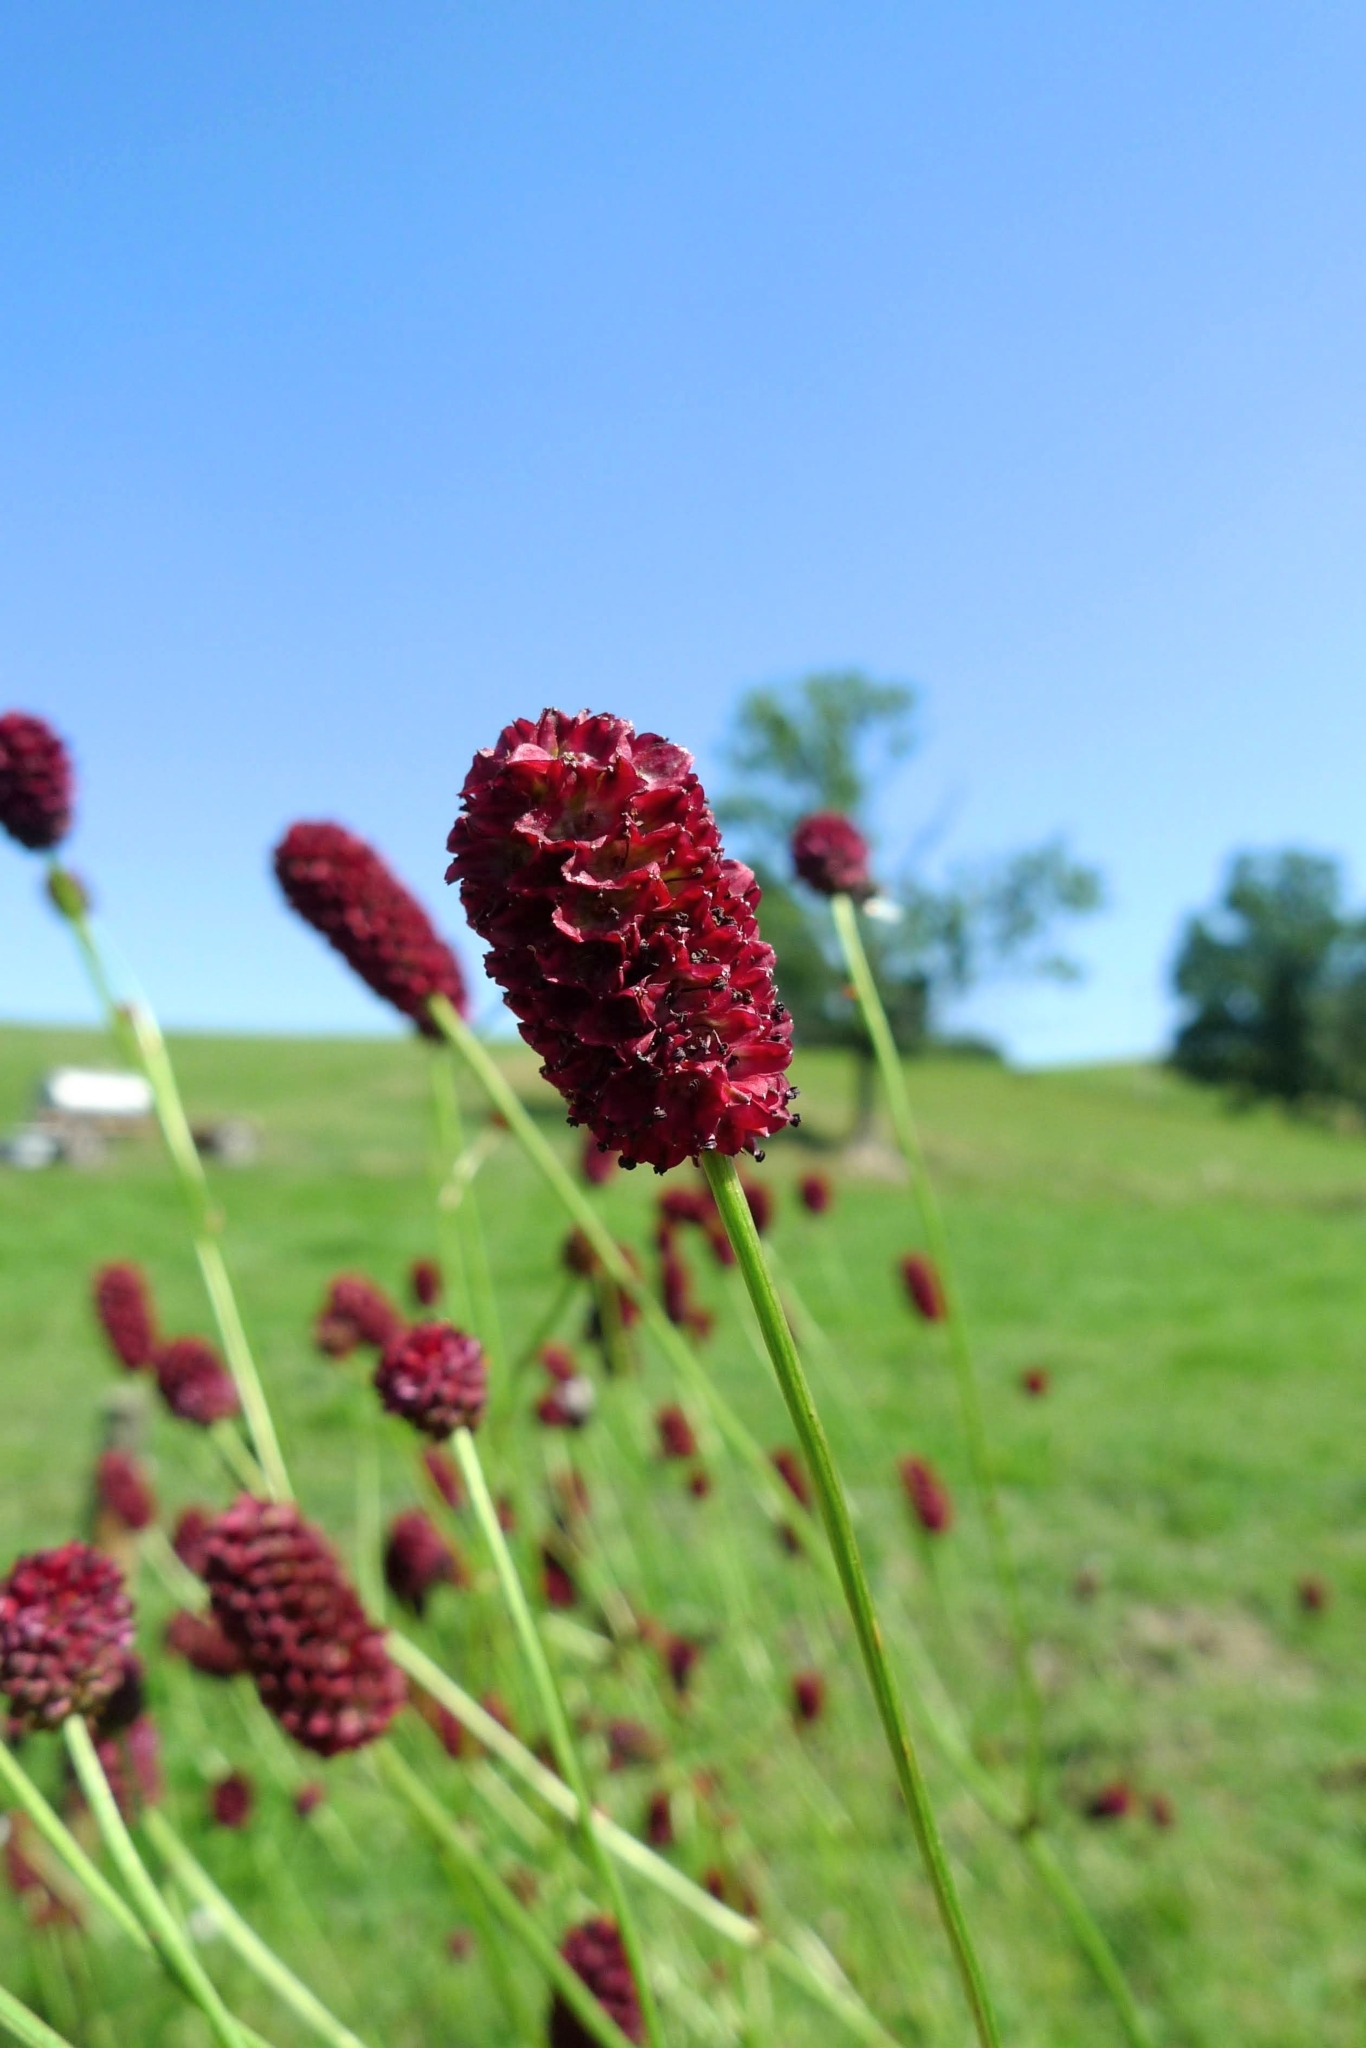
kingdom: Plantae
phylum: Tracheophyta
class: Magnoliopsida
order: Rosales
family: Rosaceae
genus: Sanguisorba
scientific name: Sanguisorba officinalis
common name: Great burnet
